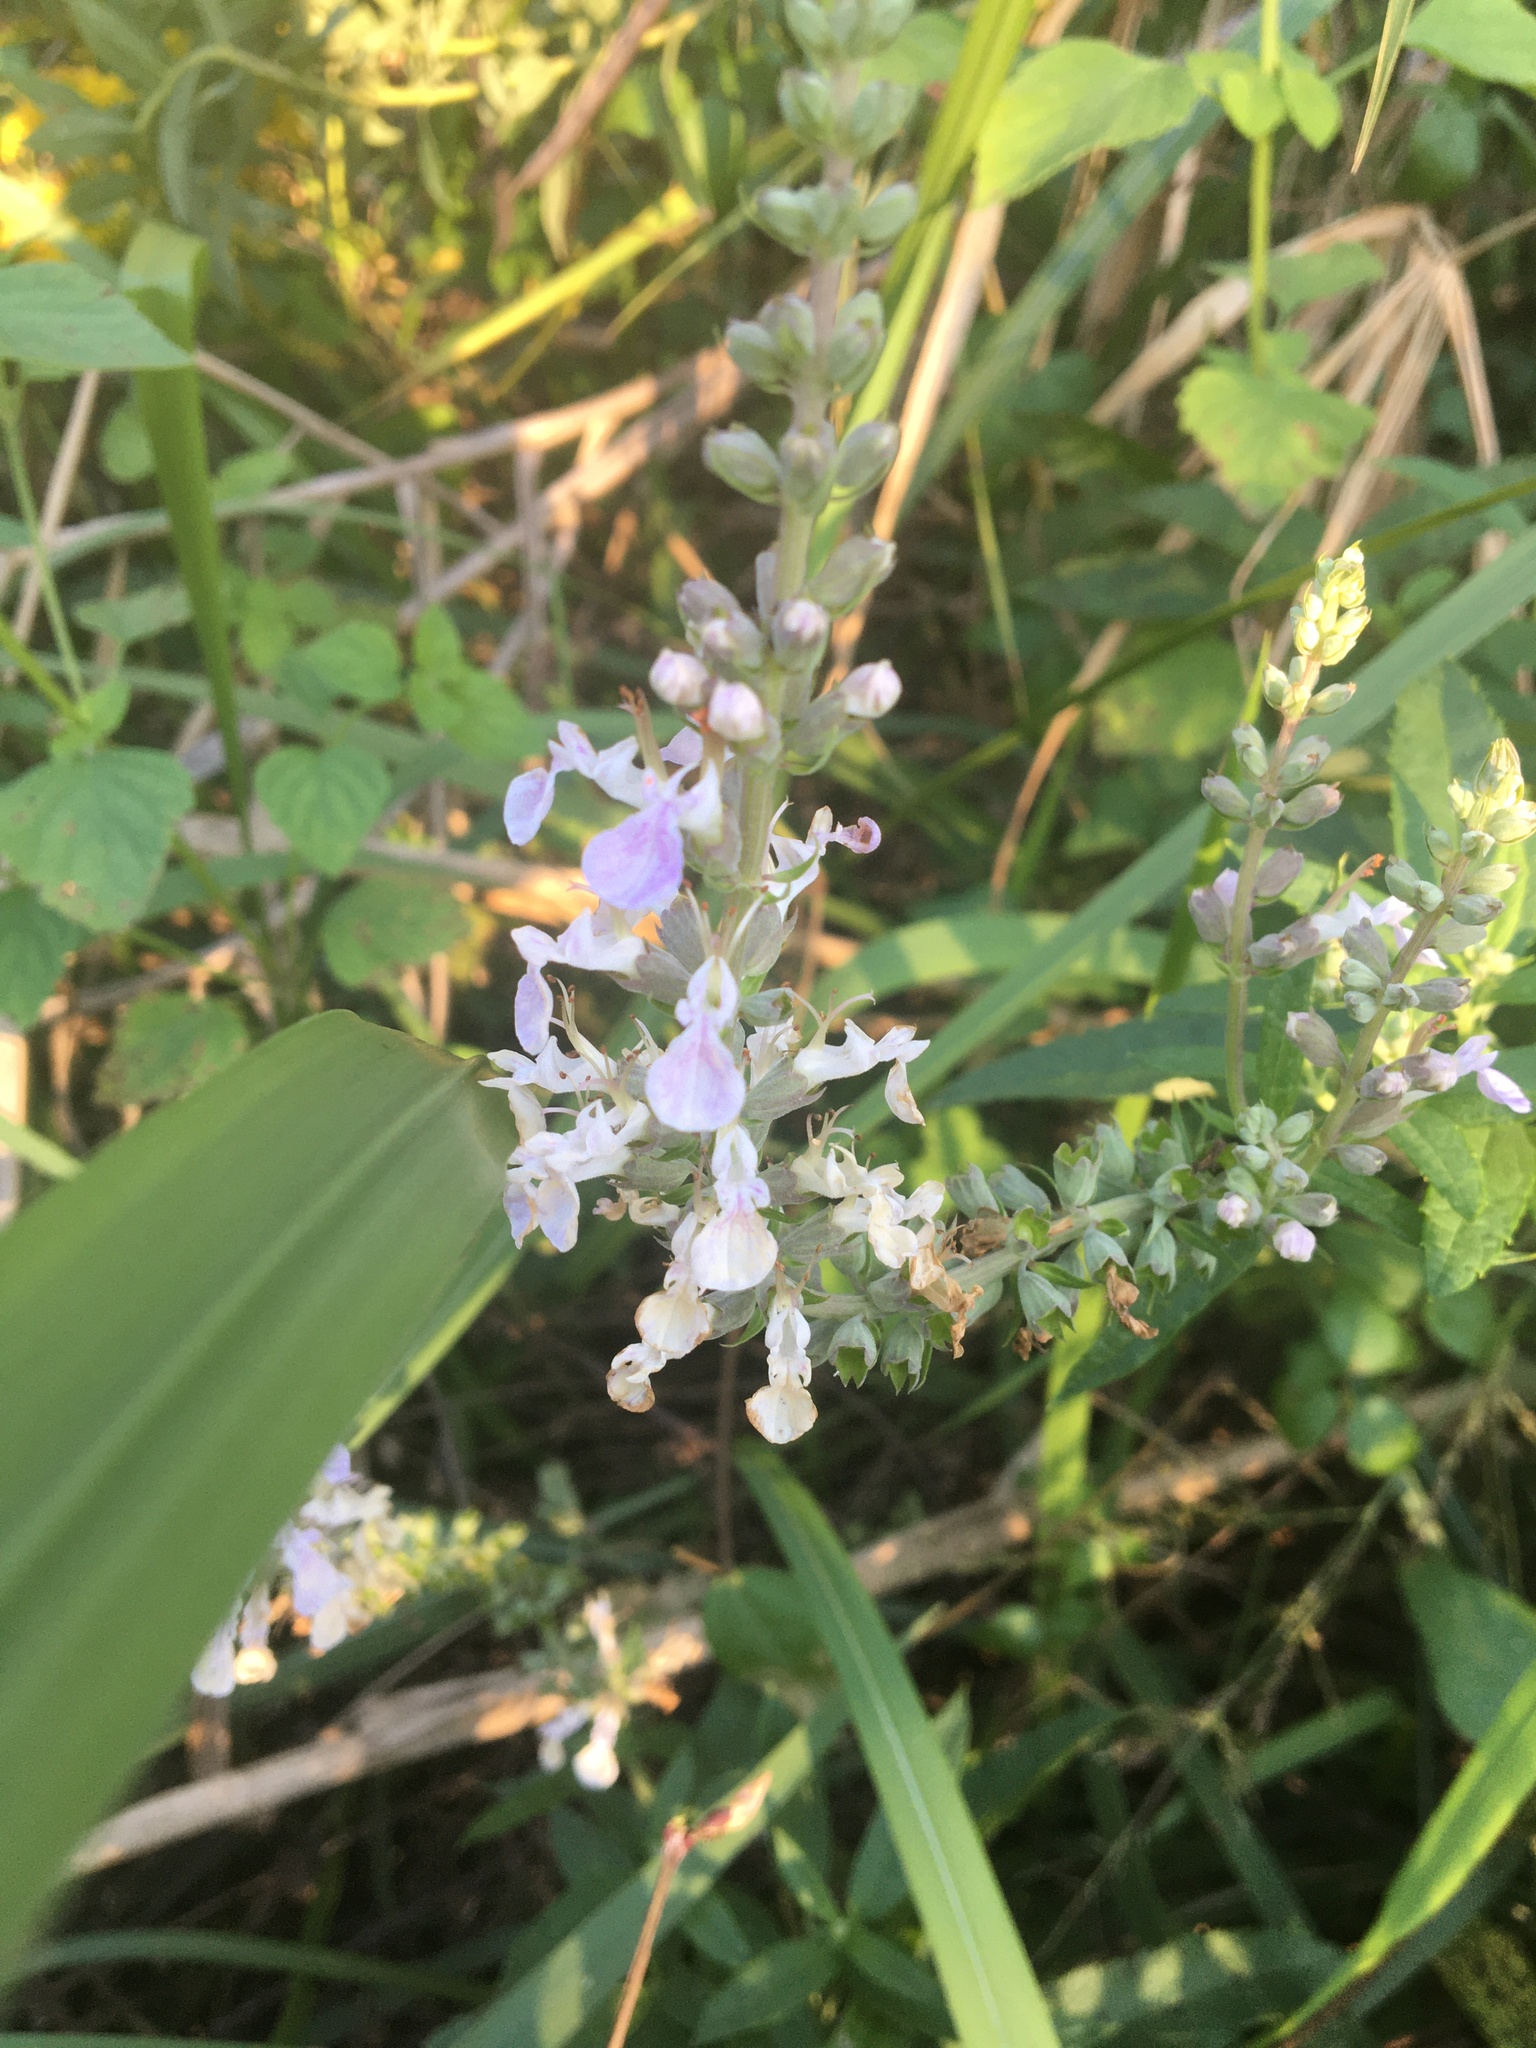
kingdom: Plantae
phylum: Tracheophyta
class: Magnoliopsida
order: Lamiales
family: Lamiaceae
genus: Teucrium
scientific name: Teucrium canadense
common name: American germander
